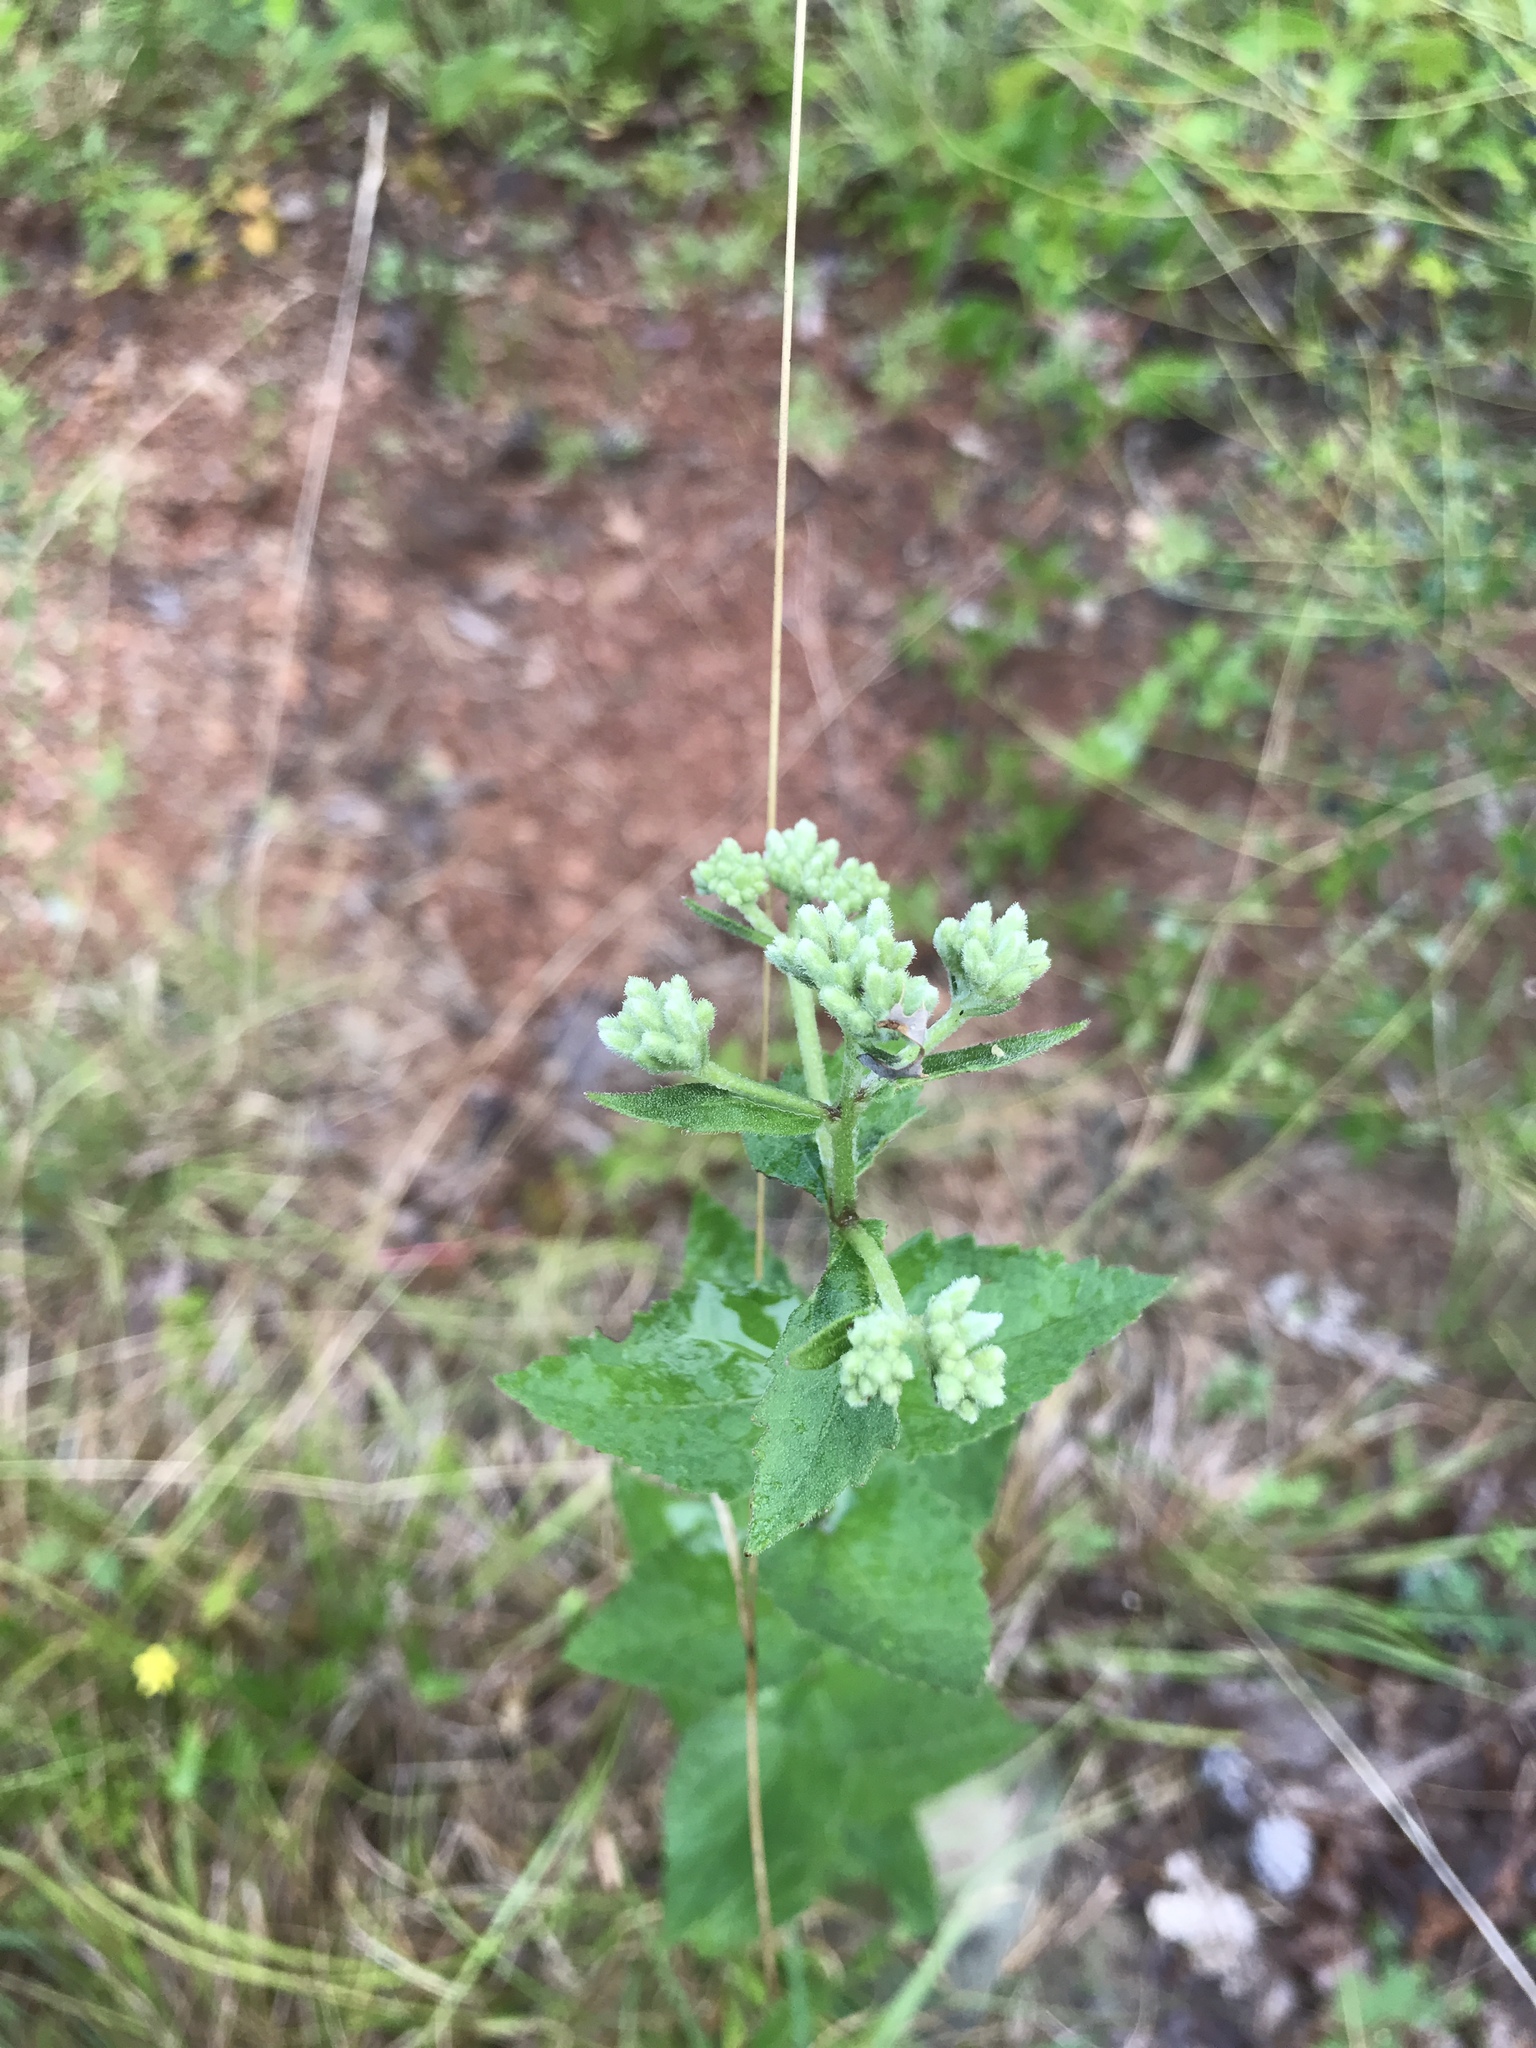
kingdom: Plantae
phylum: Tracheophyta
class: Magnoliopsida
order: Asterales
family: Asteraceae
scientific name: Asteraceae
